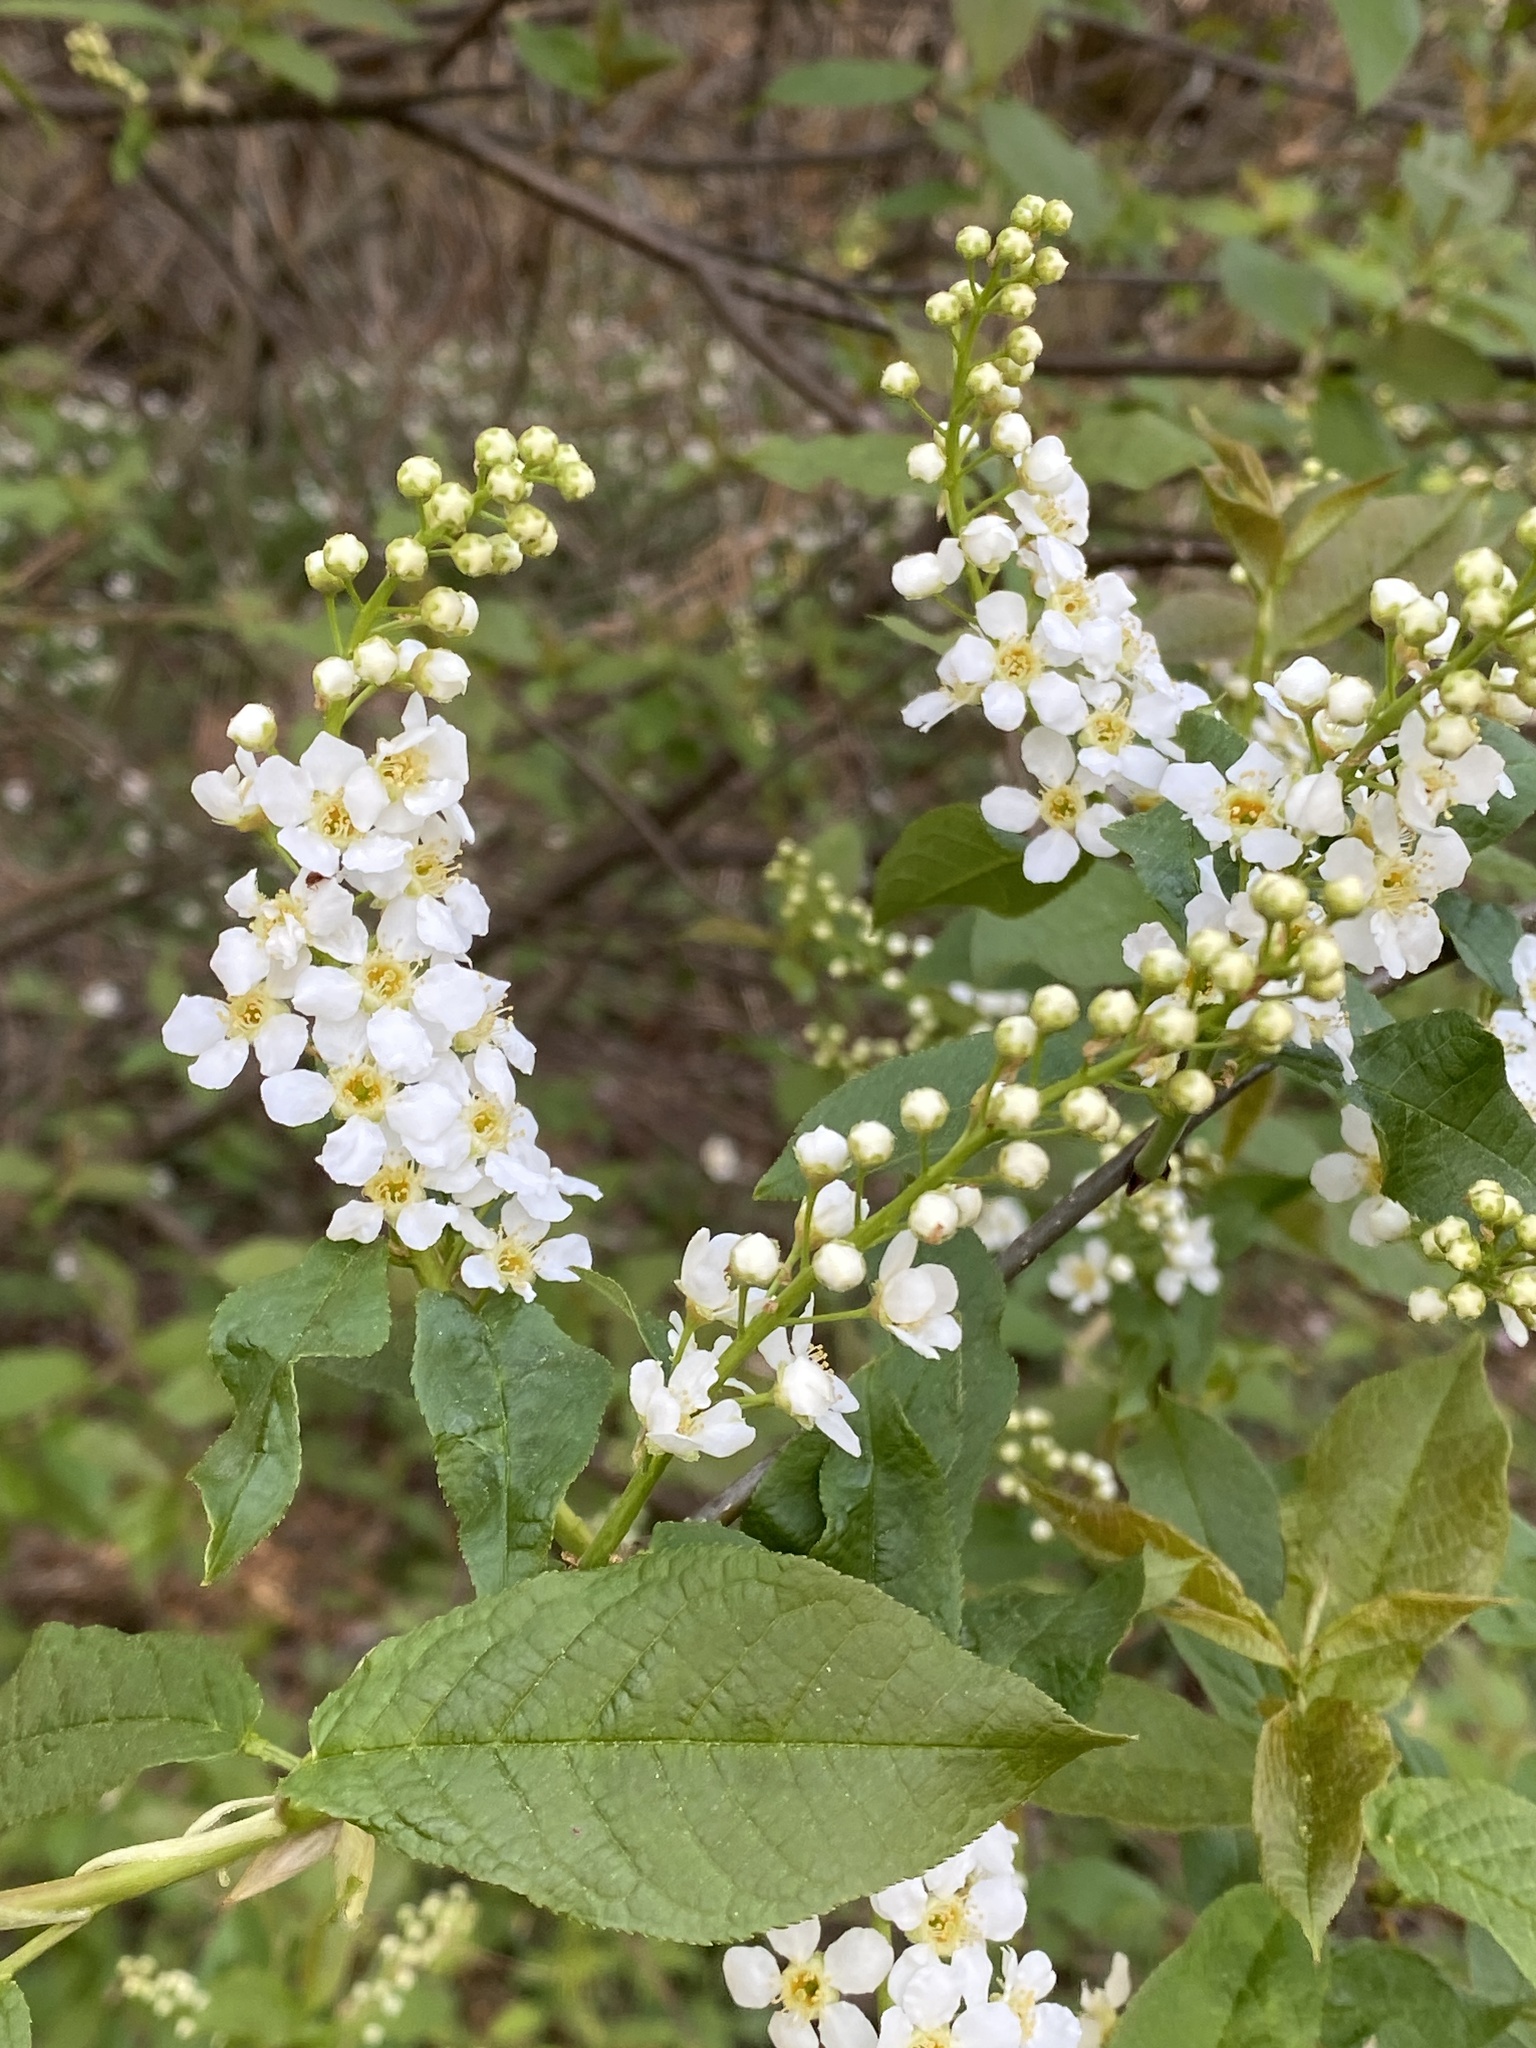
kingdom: Plantae
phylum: Tracheophyta
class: Magnoliopsida
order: Rosales
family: Rosaceae
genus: Prunus
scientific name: Prunus padus
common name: Bird cherry
